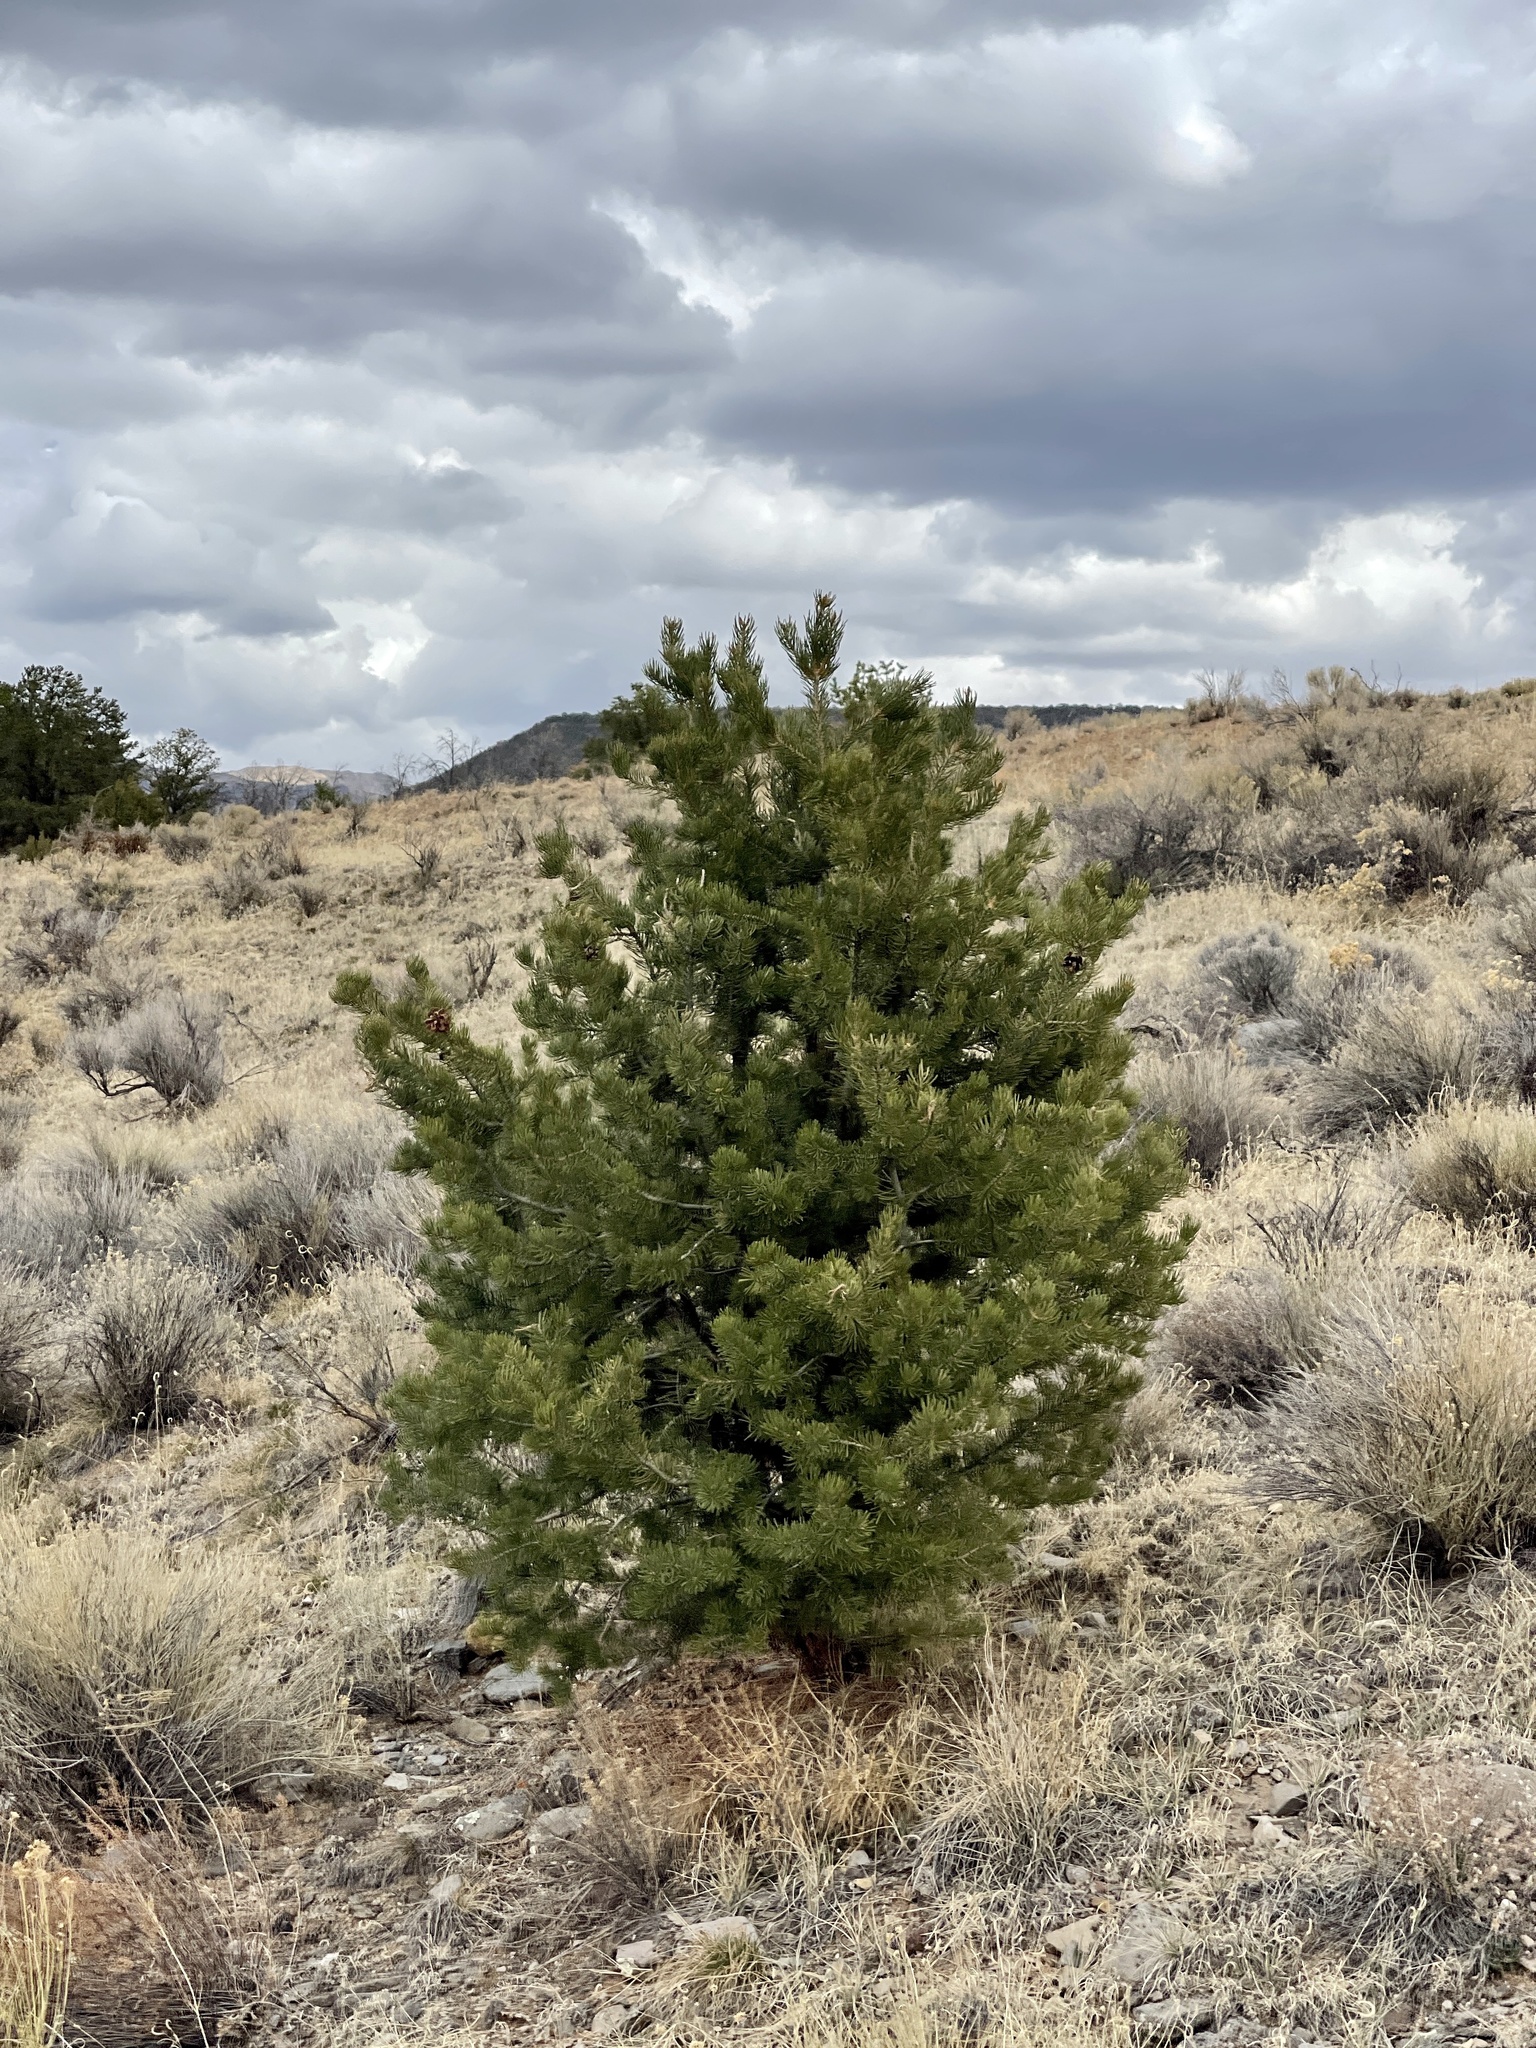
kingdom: Plantae
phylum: Tracheophyta
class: Pinopsida
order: Pinales
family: Pinaceae
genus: Pinus
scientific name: Pinus edulis
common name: Colorado pinyon
